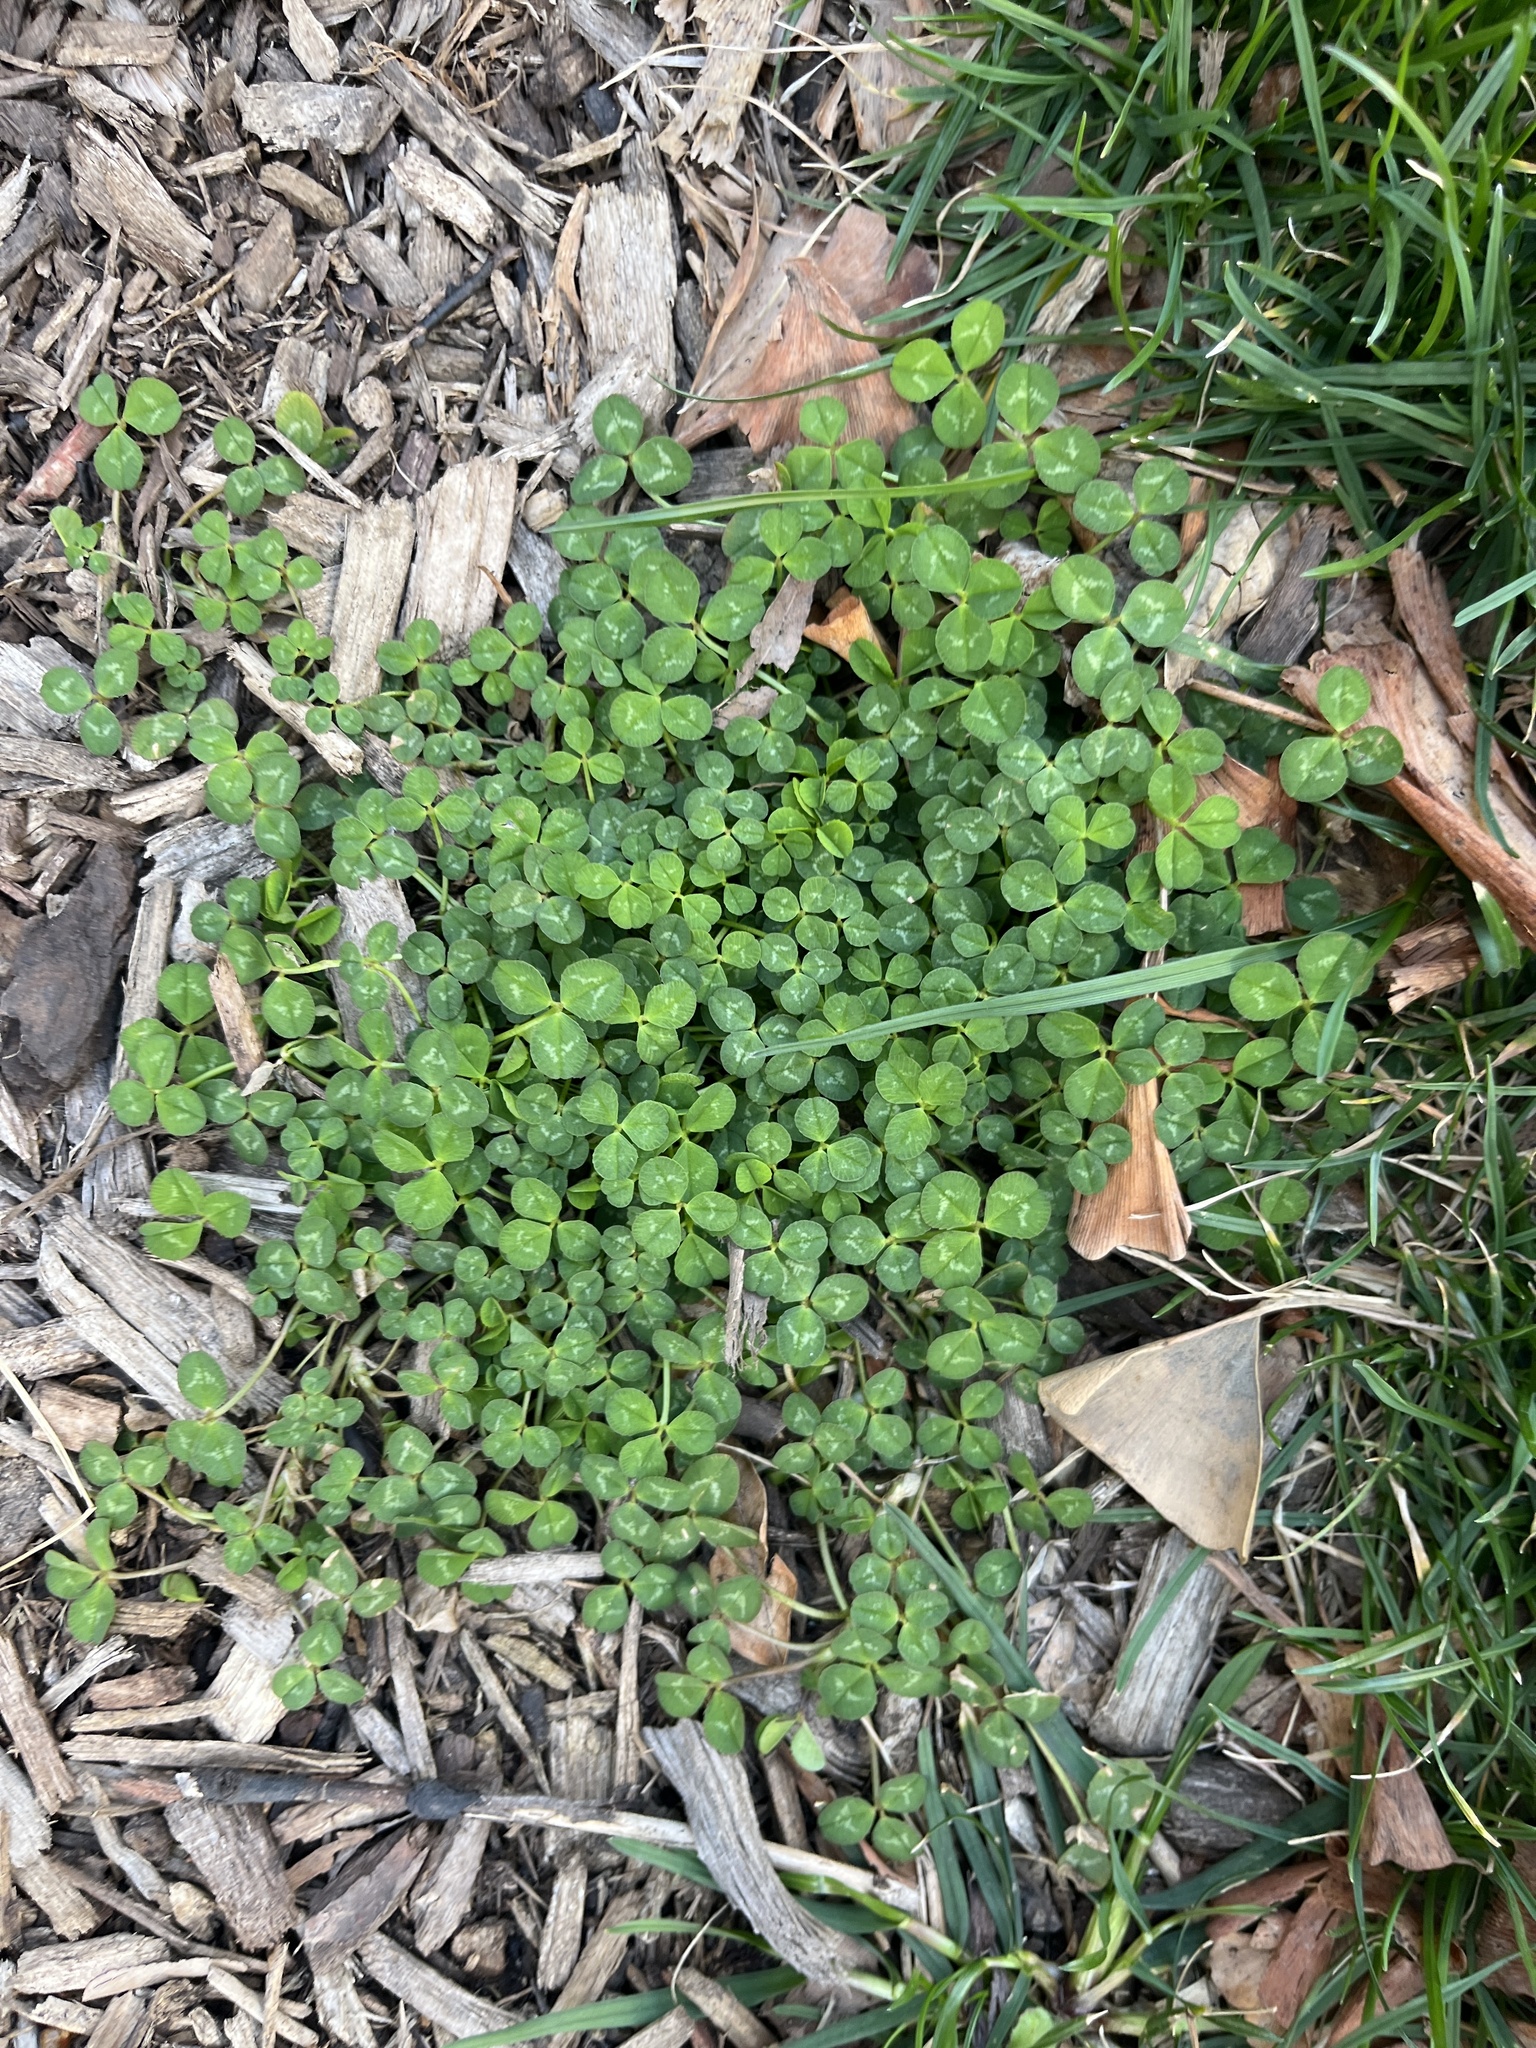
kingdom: Plantae
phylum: Tracheophyta
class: Magnoliopsida
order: Fabales
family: Fabaceae
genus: Trifolium
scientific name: Trifolium repens
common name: White clover
